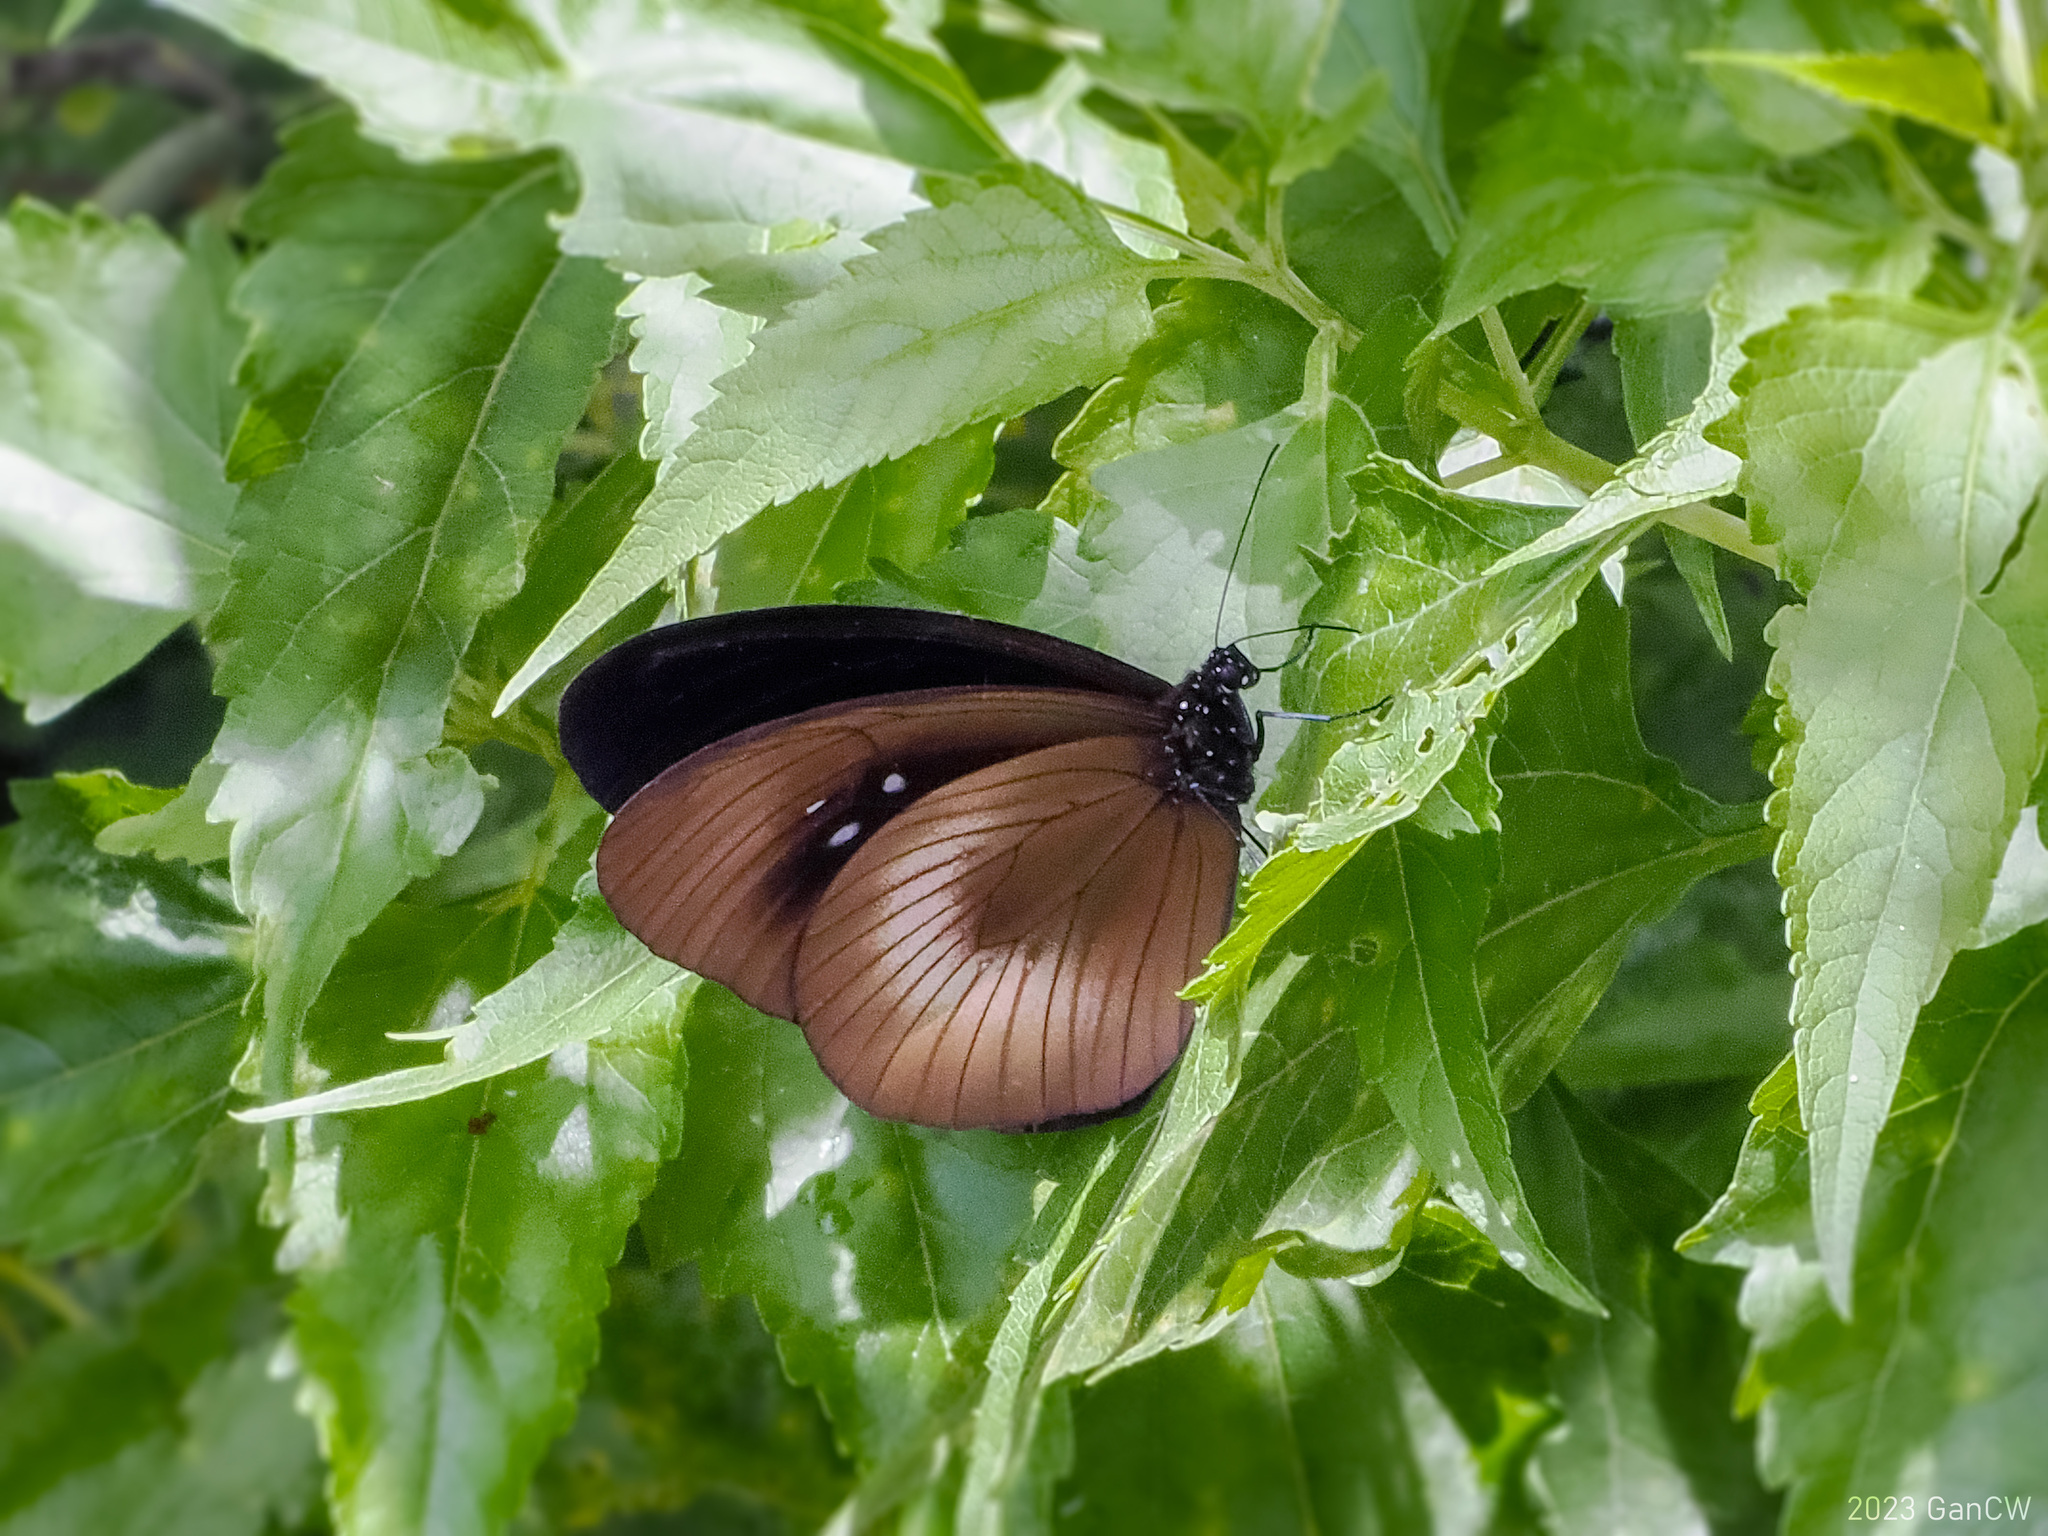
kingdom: Animalia
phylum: Arthropoda
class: Insecta
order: Lepidoptera
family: Nymphalidae
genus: Euploea
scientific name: Euploea magou
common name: Magou
